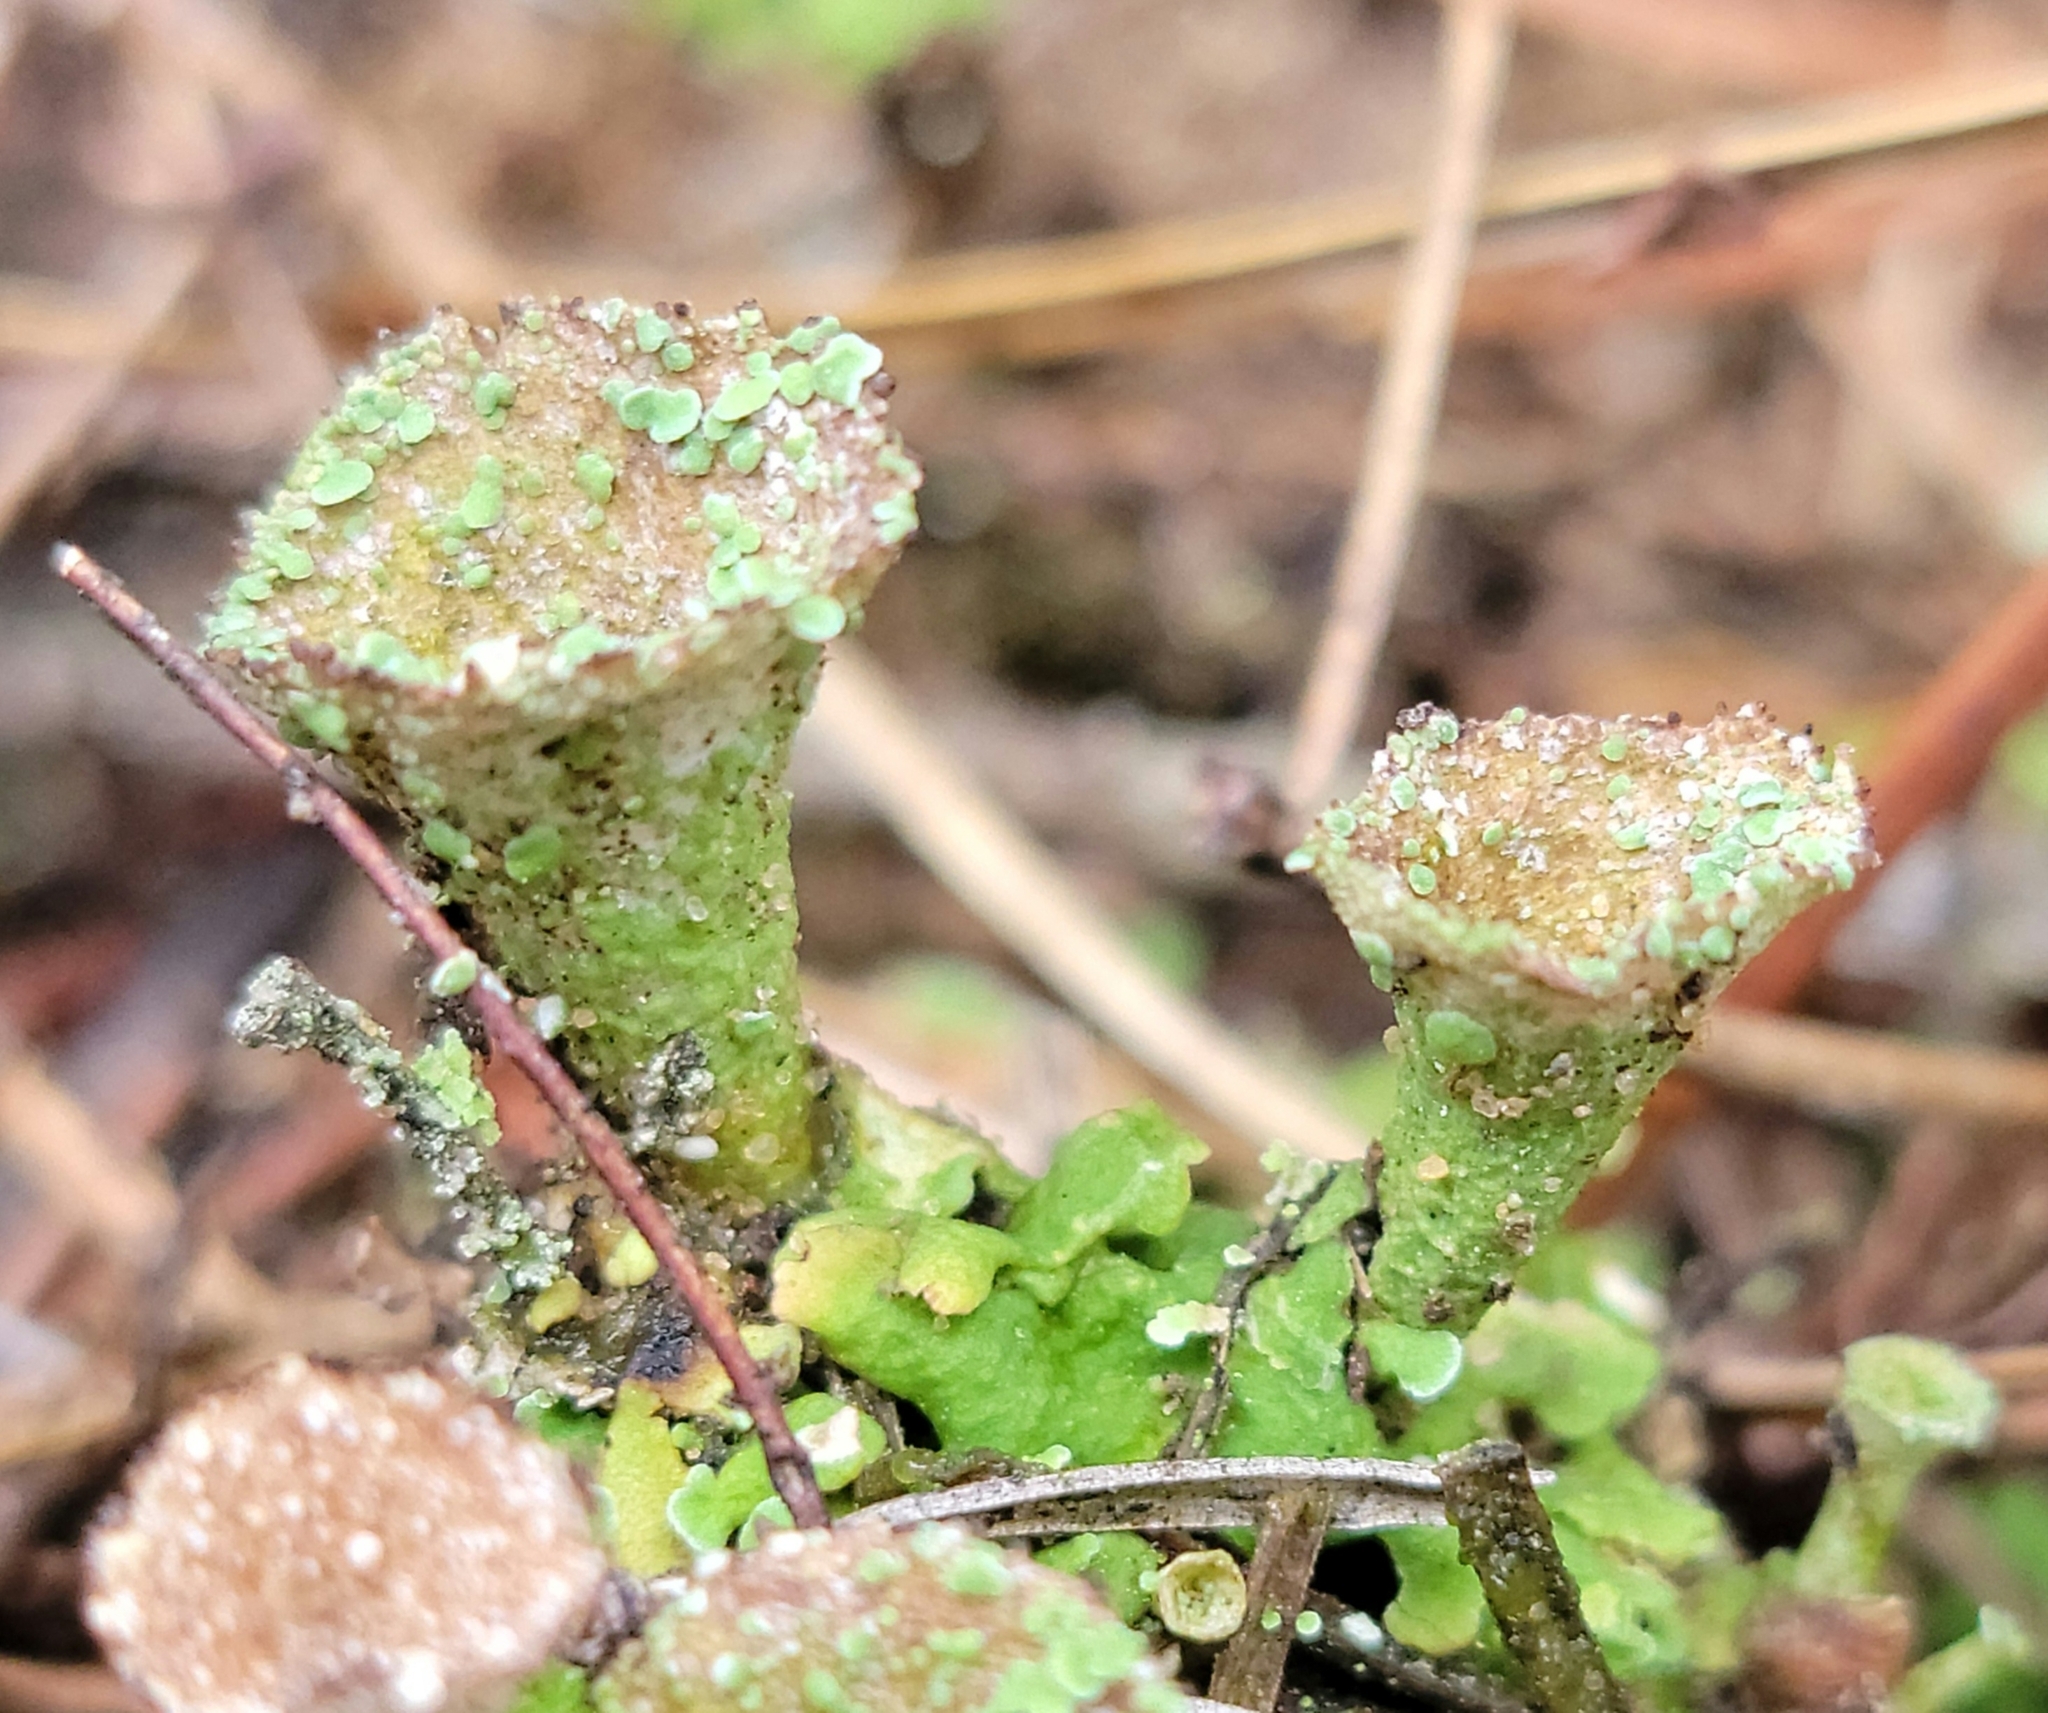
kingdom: Fungi
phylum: Ascomycota
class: Lecanoromycetes
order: Lecanorales
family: Cladoniaceae
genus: Cladonia
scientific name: Cladonia pyxidata
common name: Pebbled pixie cup
